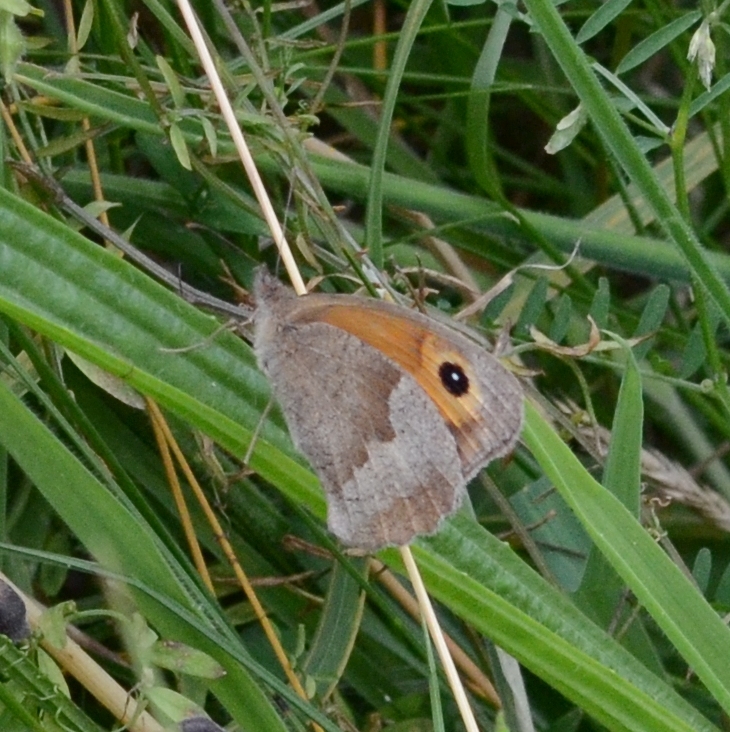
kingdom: Animalia
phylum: Arthropoda
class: Insecta
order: Lepidoptera
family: Nymphalidae
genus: Maniola
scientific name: Maniola jurtina
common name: Meadow brown
